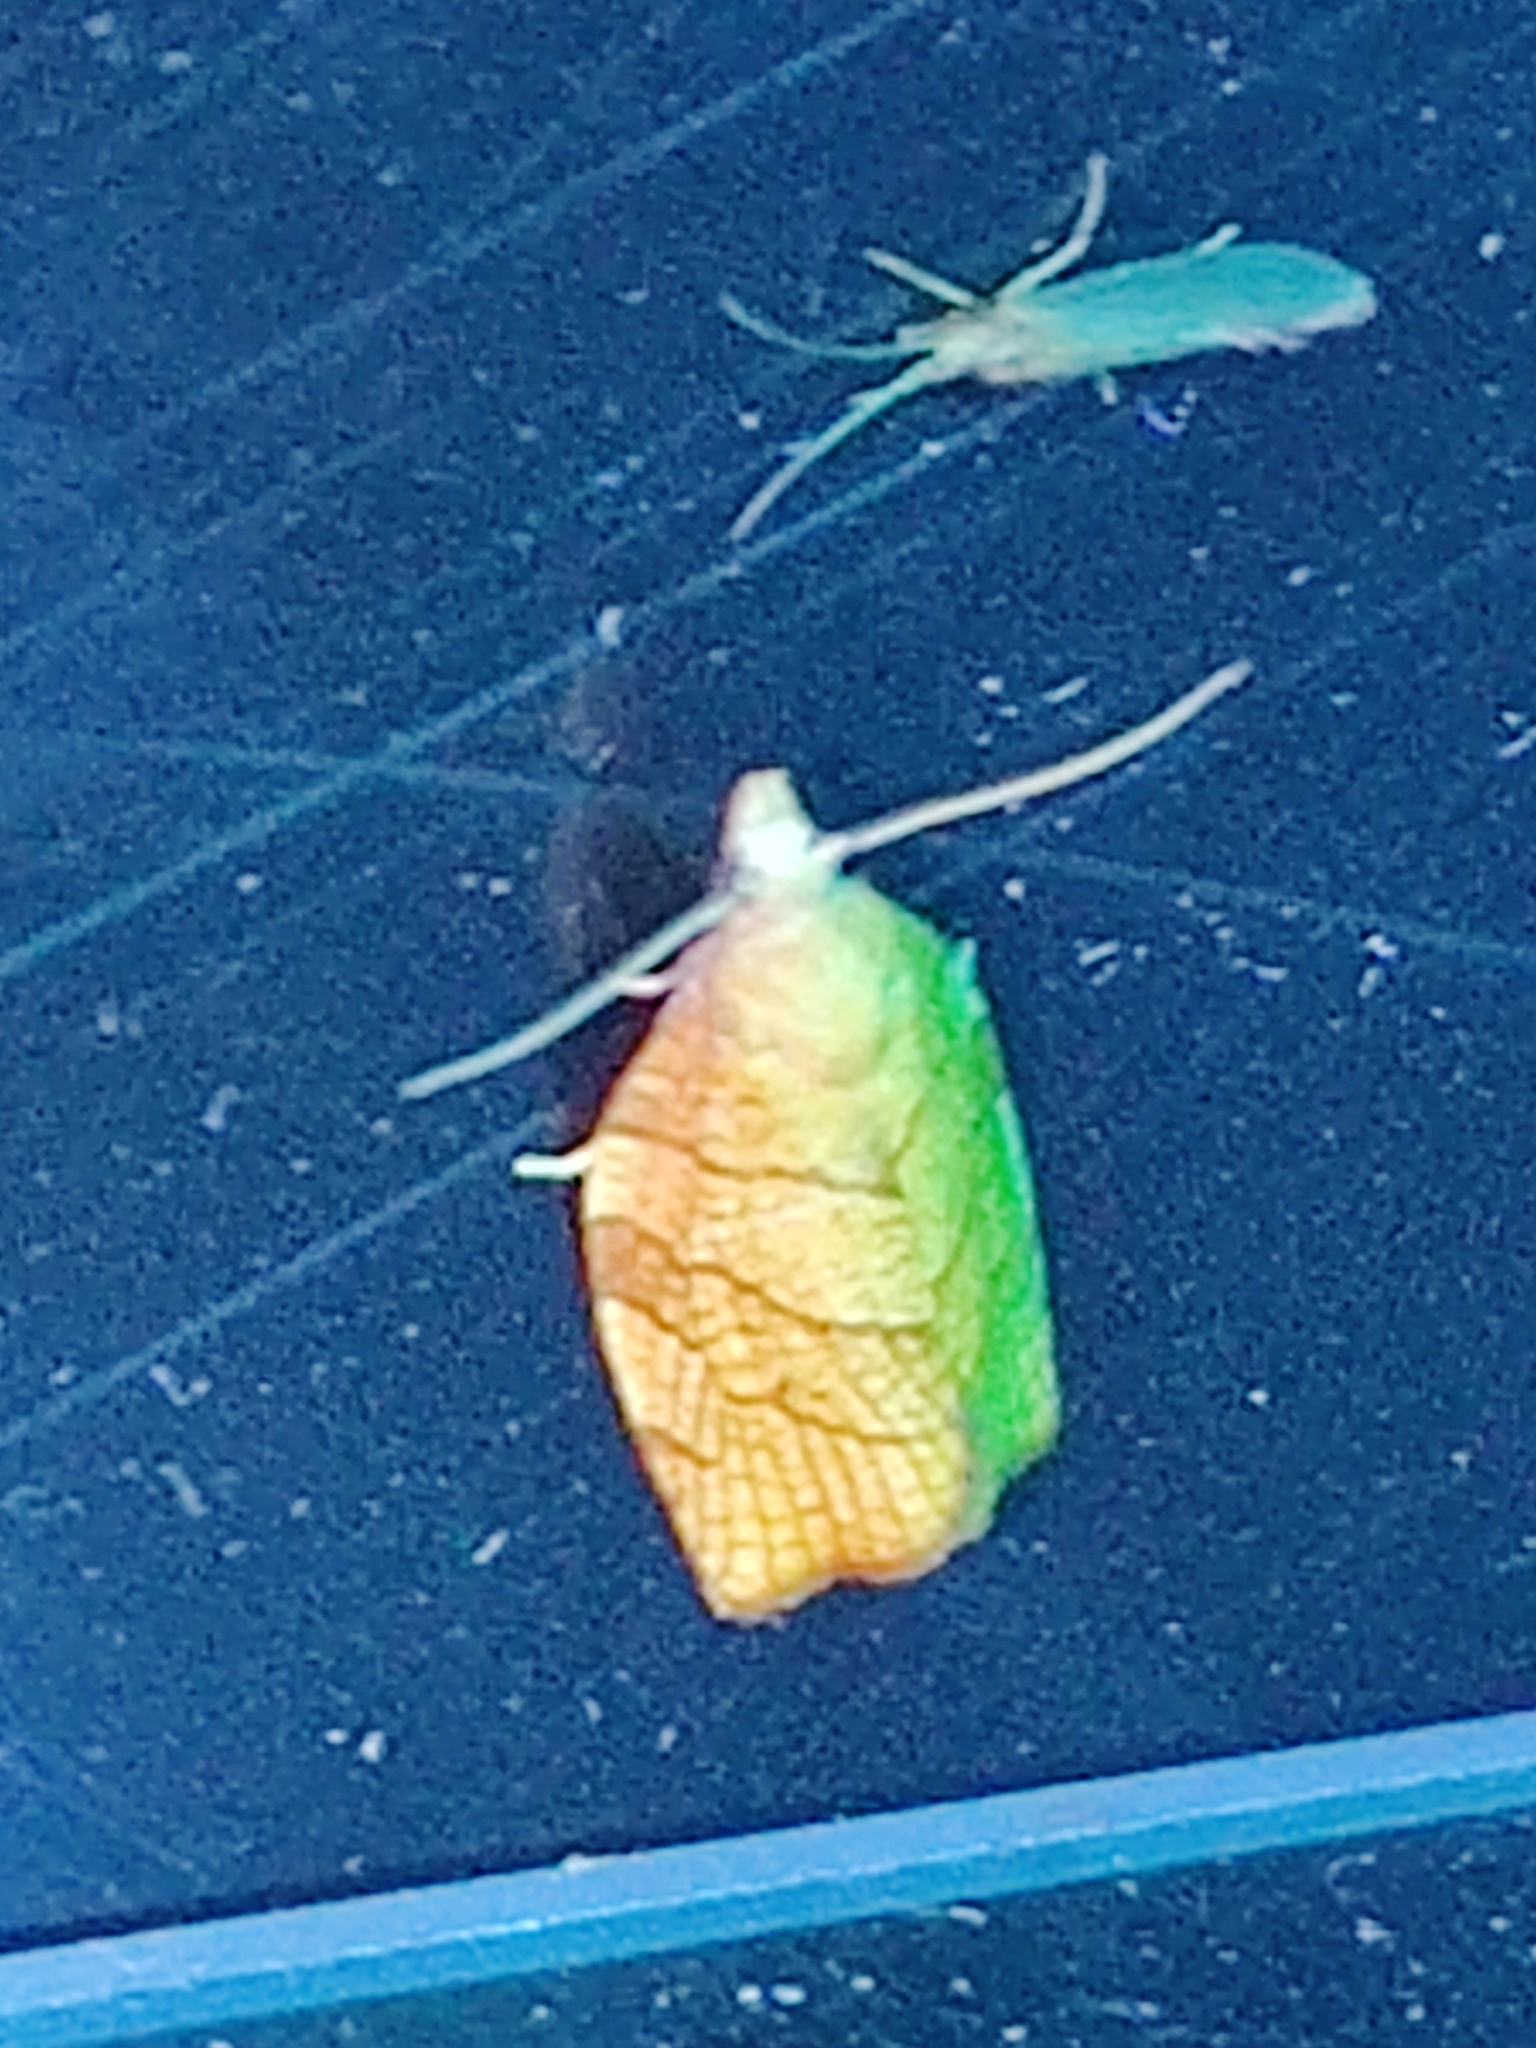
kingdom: Animalia
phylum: Arthropoda
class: Insecta
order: Lepidoptera
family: Tortricidae
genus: Pandemis
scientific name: Pandemis corylana
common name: Chequered fruit-tree tortrix
